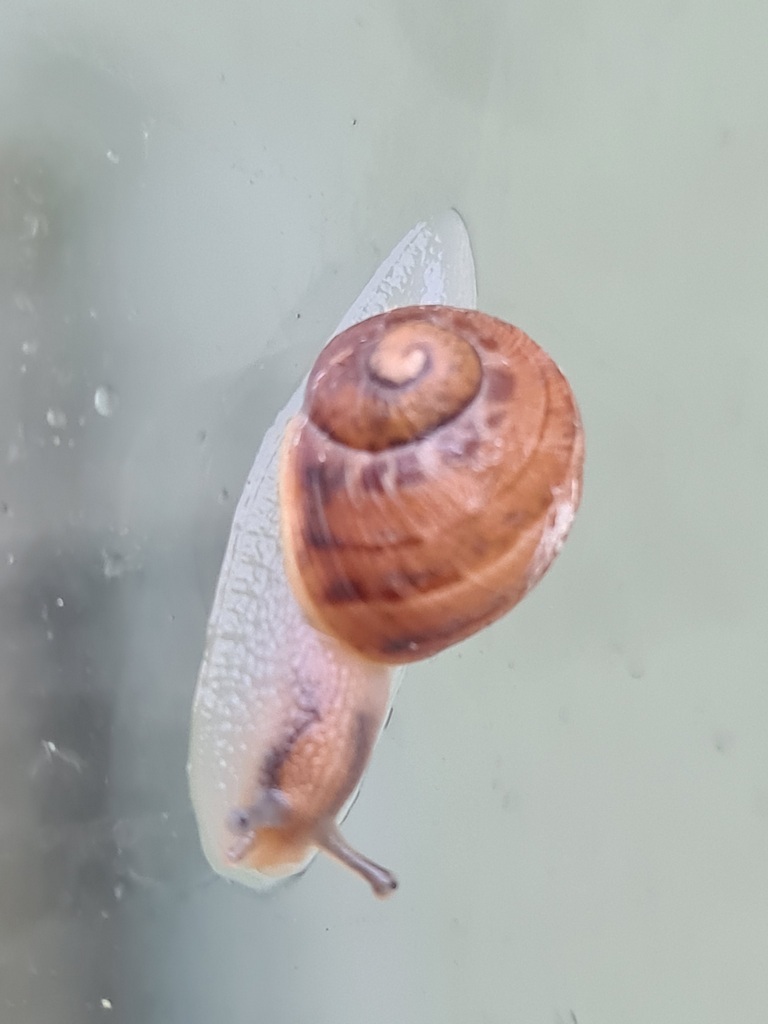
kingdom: Animalia
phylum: Mollusca
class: Gastropoda
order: Stylommatophora
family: Helicidae
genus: Cornu
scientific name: Cornu aspersum
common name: Brown garden snail
